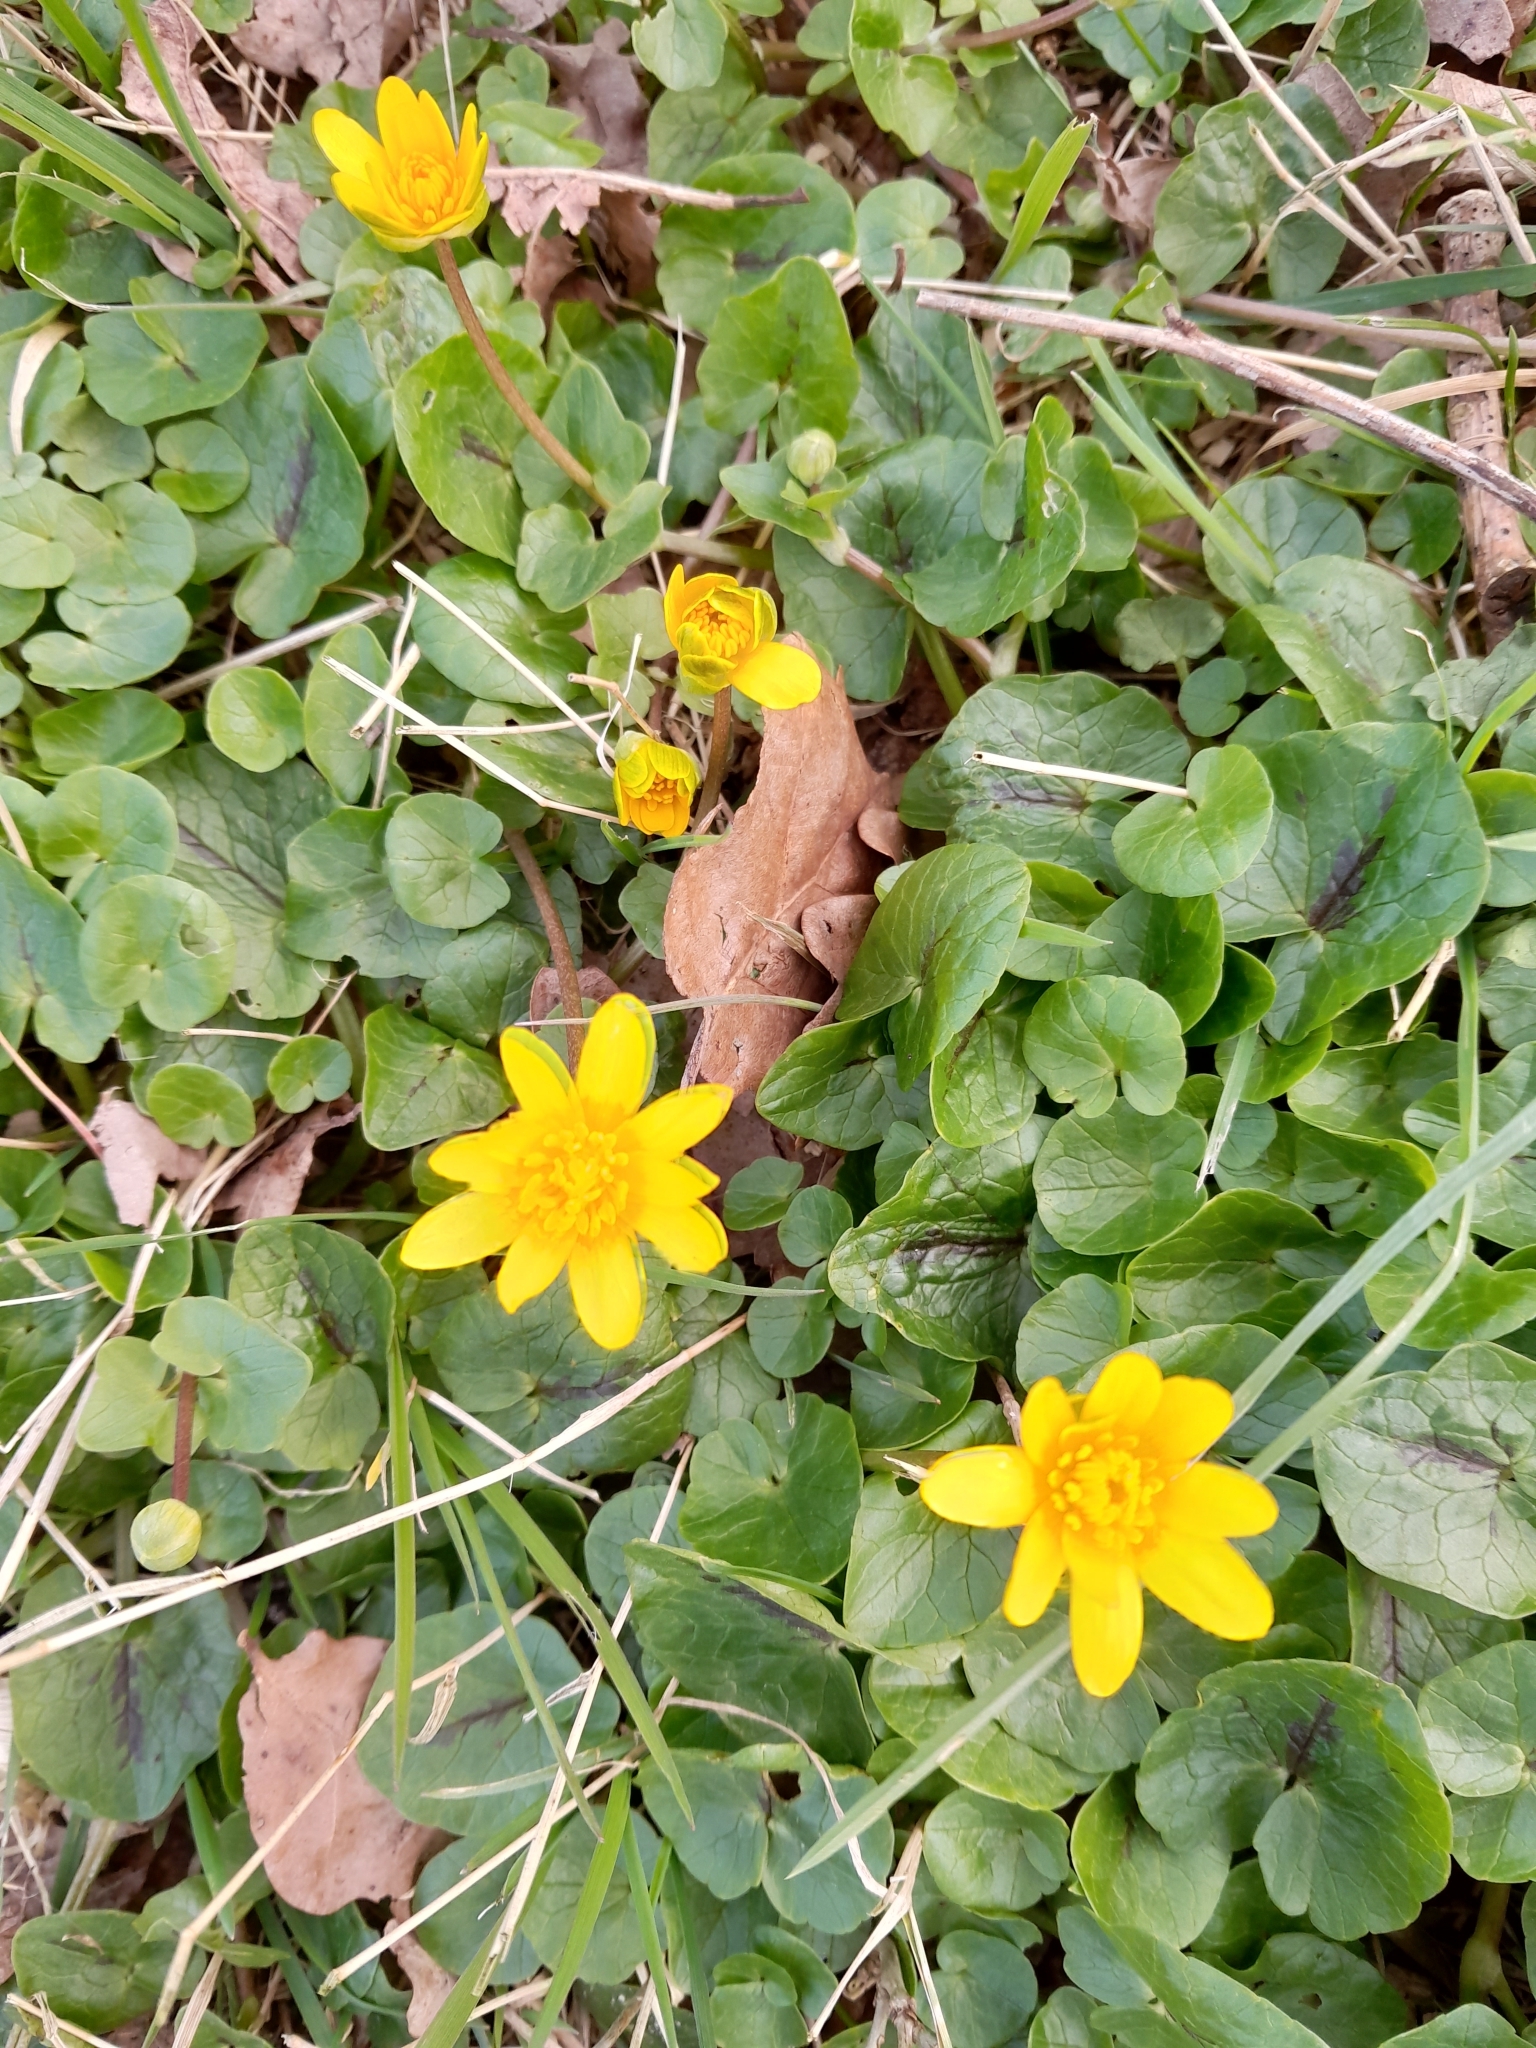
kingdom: Plantae
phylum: Tracheophyta
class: Magnoliopsida
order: Ranunculales
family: Ranunculaceae
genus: Ficaria
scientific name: Ficaria verna
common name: Lesser celandine
